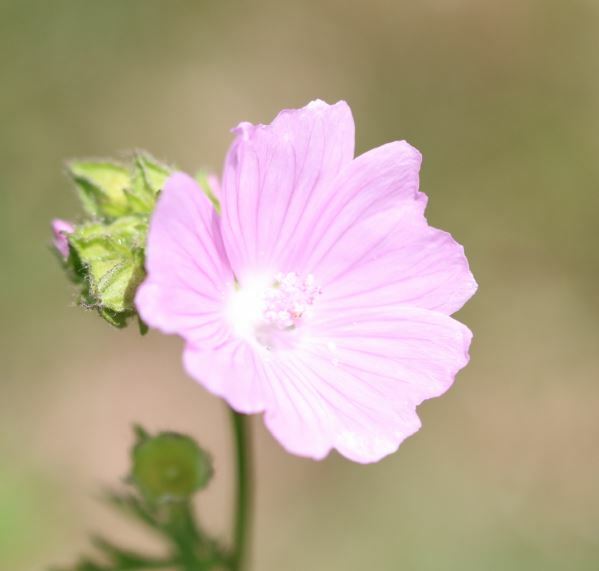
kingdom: Plantae
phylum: Tracheophyta
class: Magnoliopsida
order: Malvales
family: Malvaceae
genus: Malva
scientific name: Malva alcea
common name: Greater musk-mallow
